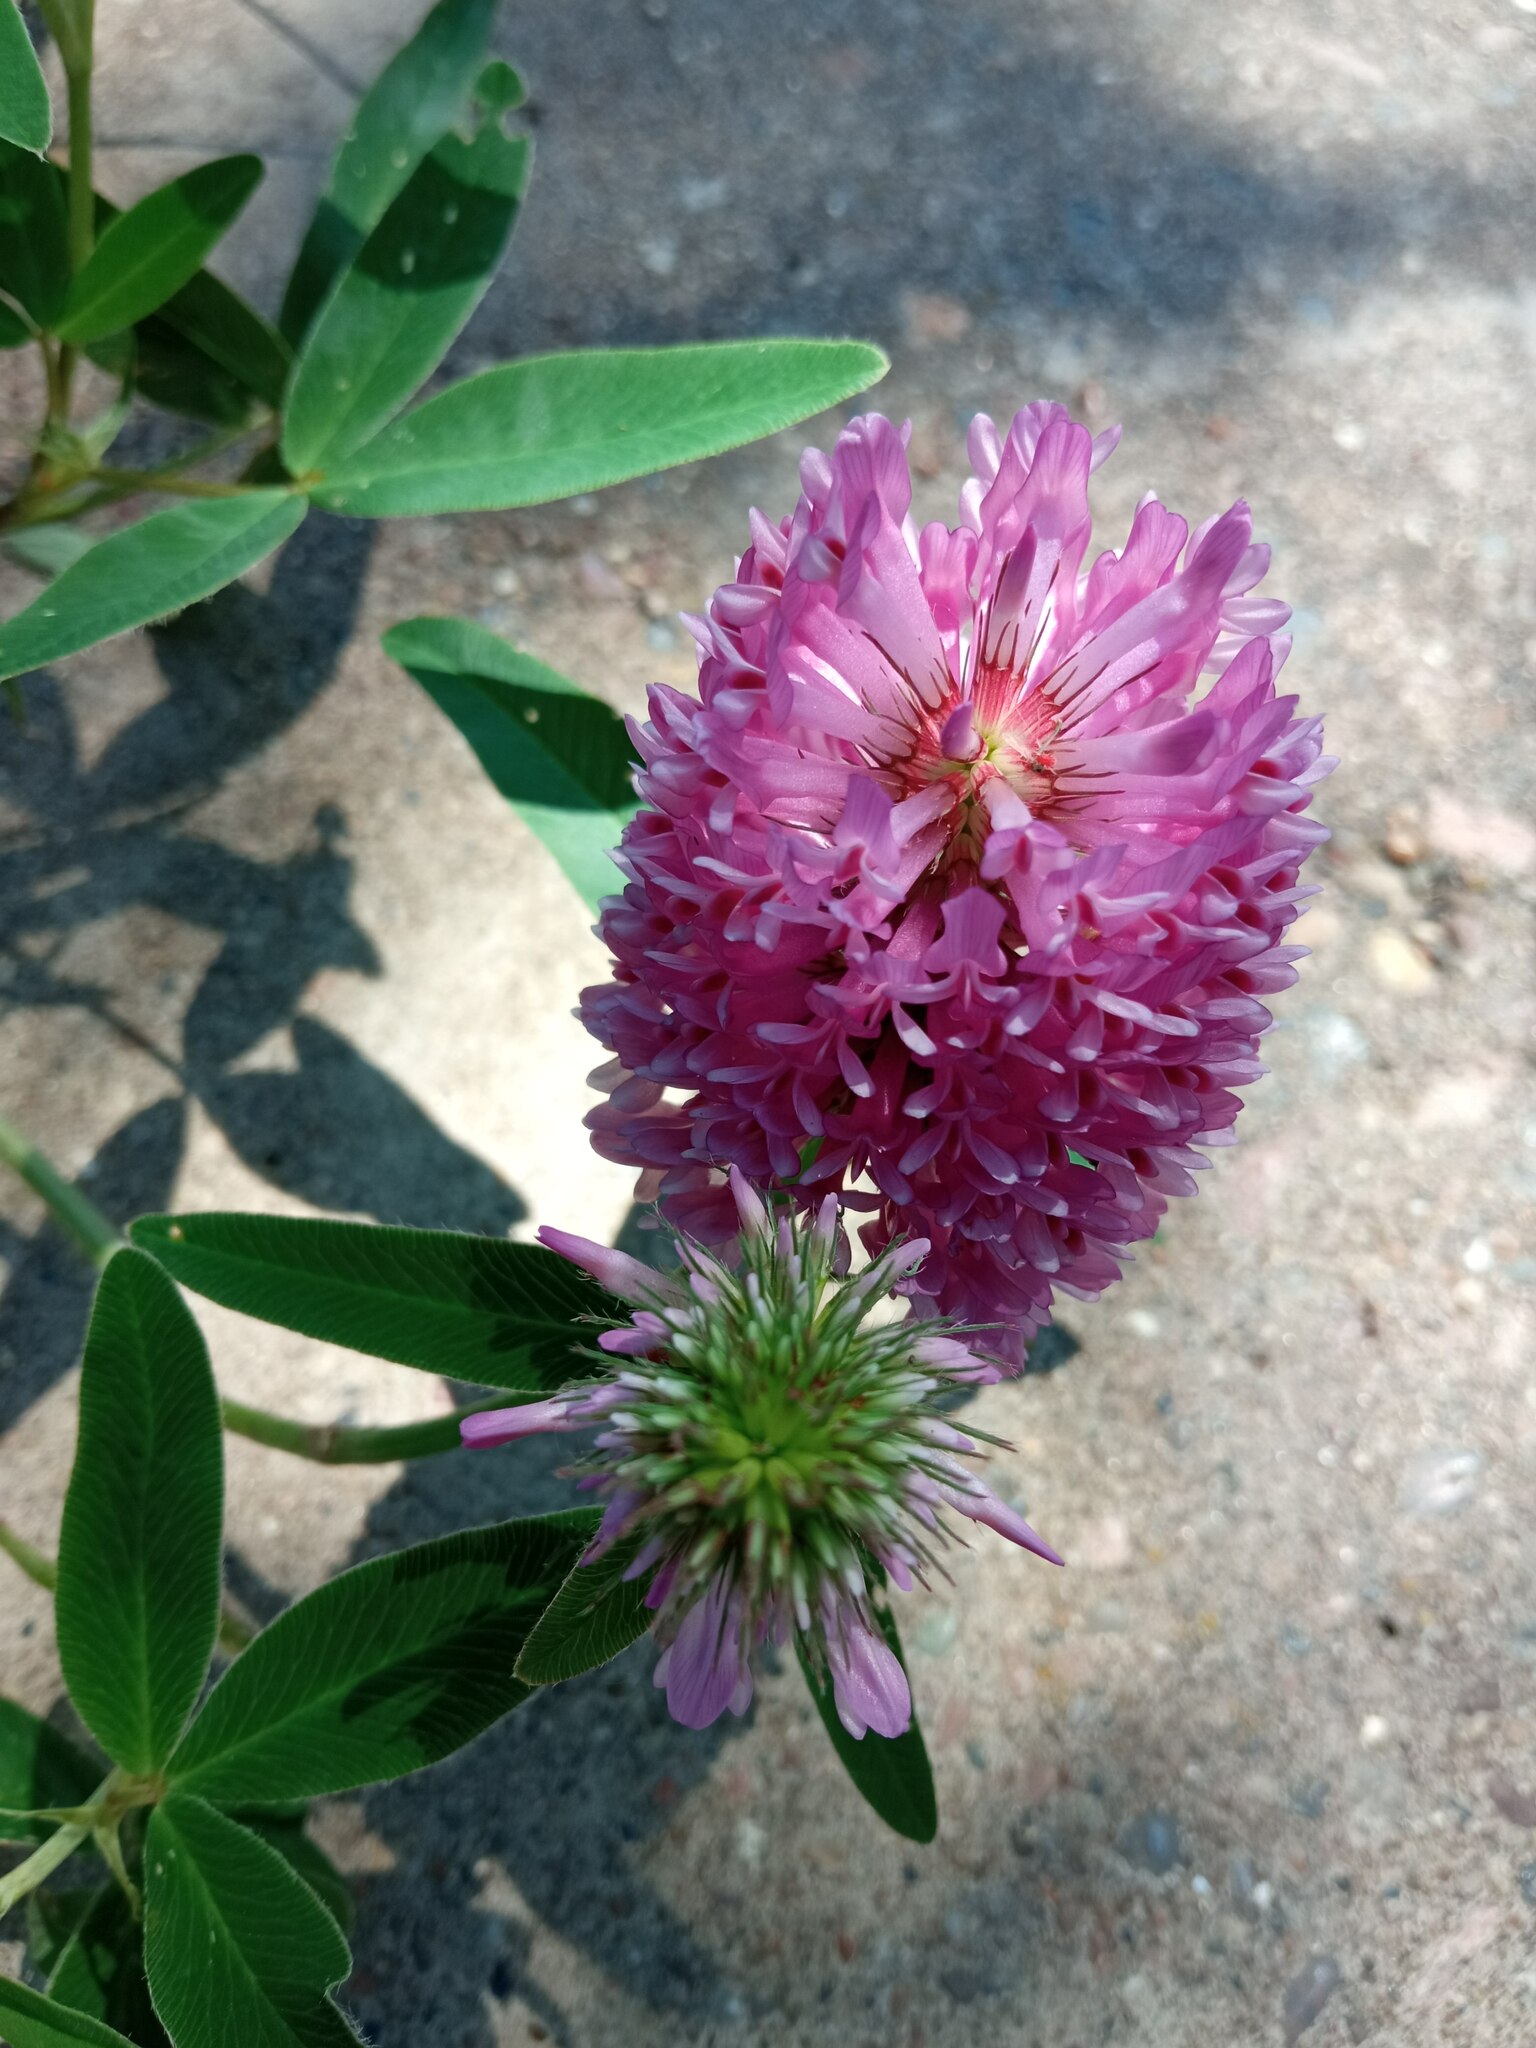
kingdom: Plantae
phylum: Tracheophyta
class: Magnoliopsida
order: Fabales
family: Fabaceae
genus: Trifolium
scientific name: Trifolium medium
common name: Zigzag clover
